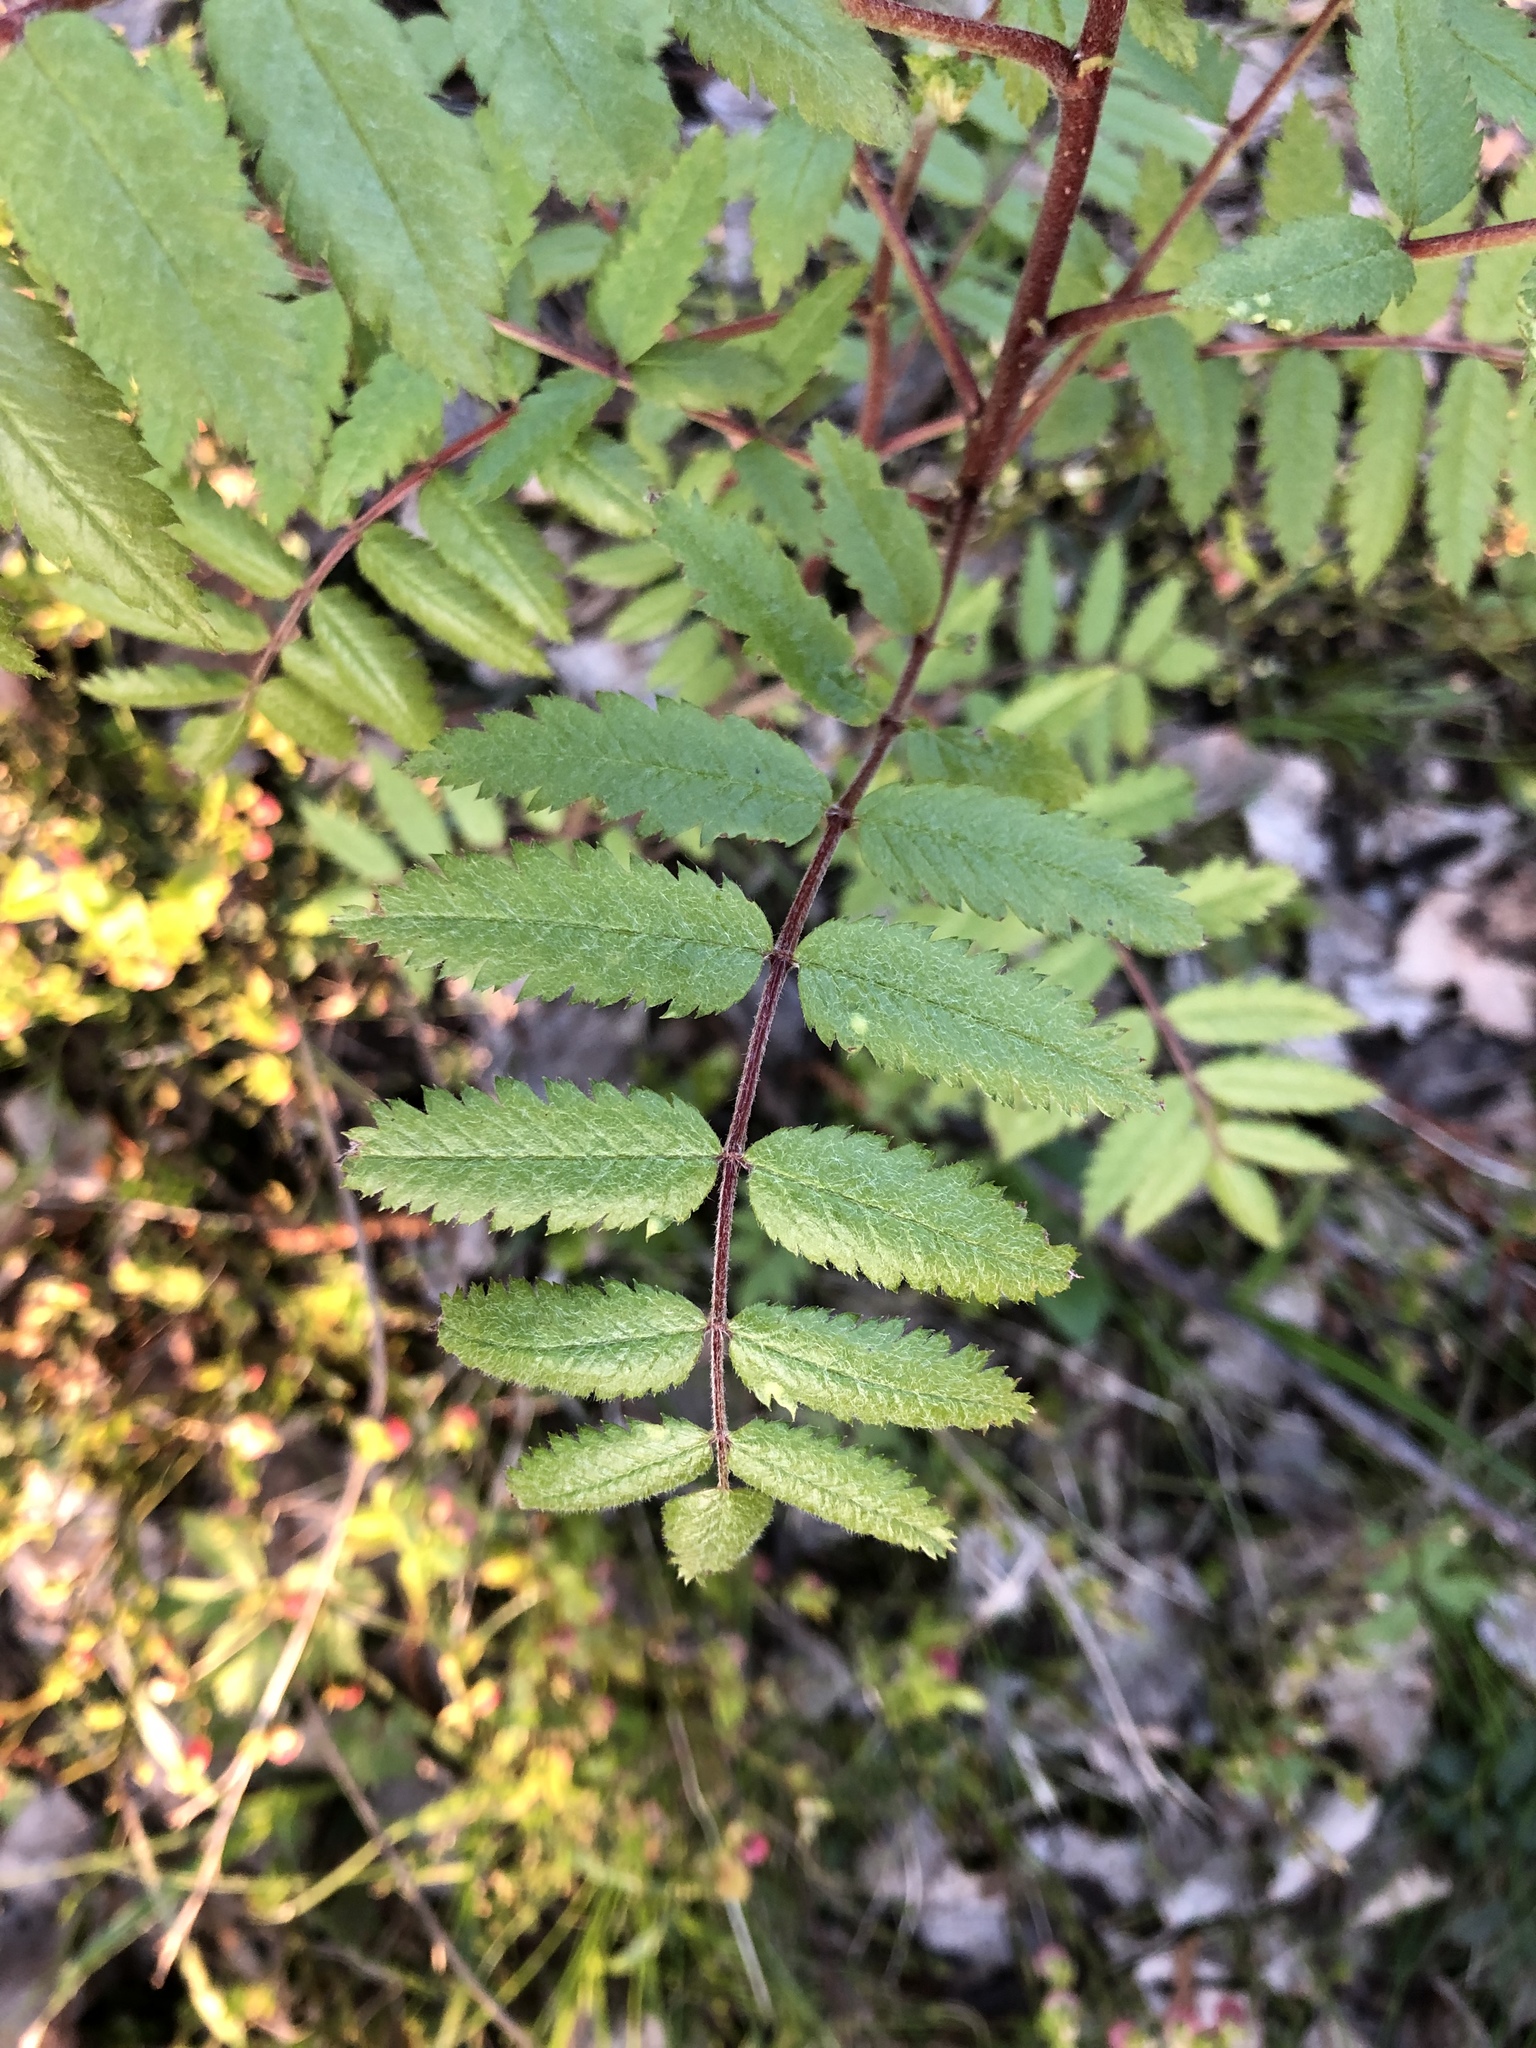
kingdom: Plantae
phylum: Tracheophyta
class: Magnoliopsida
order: Rosales
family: Rosaceae
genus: Sorbus
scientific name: Sorbus aucuparia
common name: Rowan
